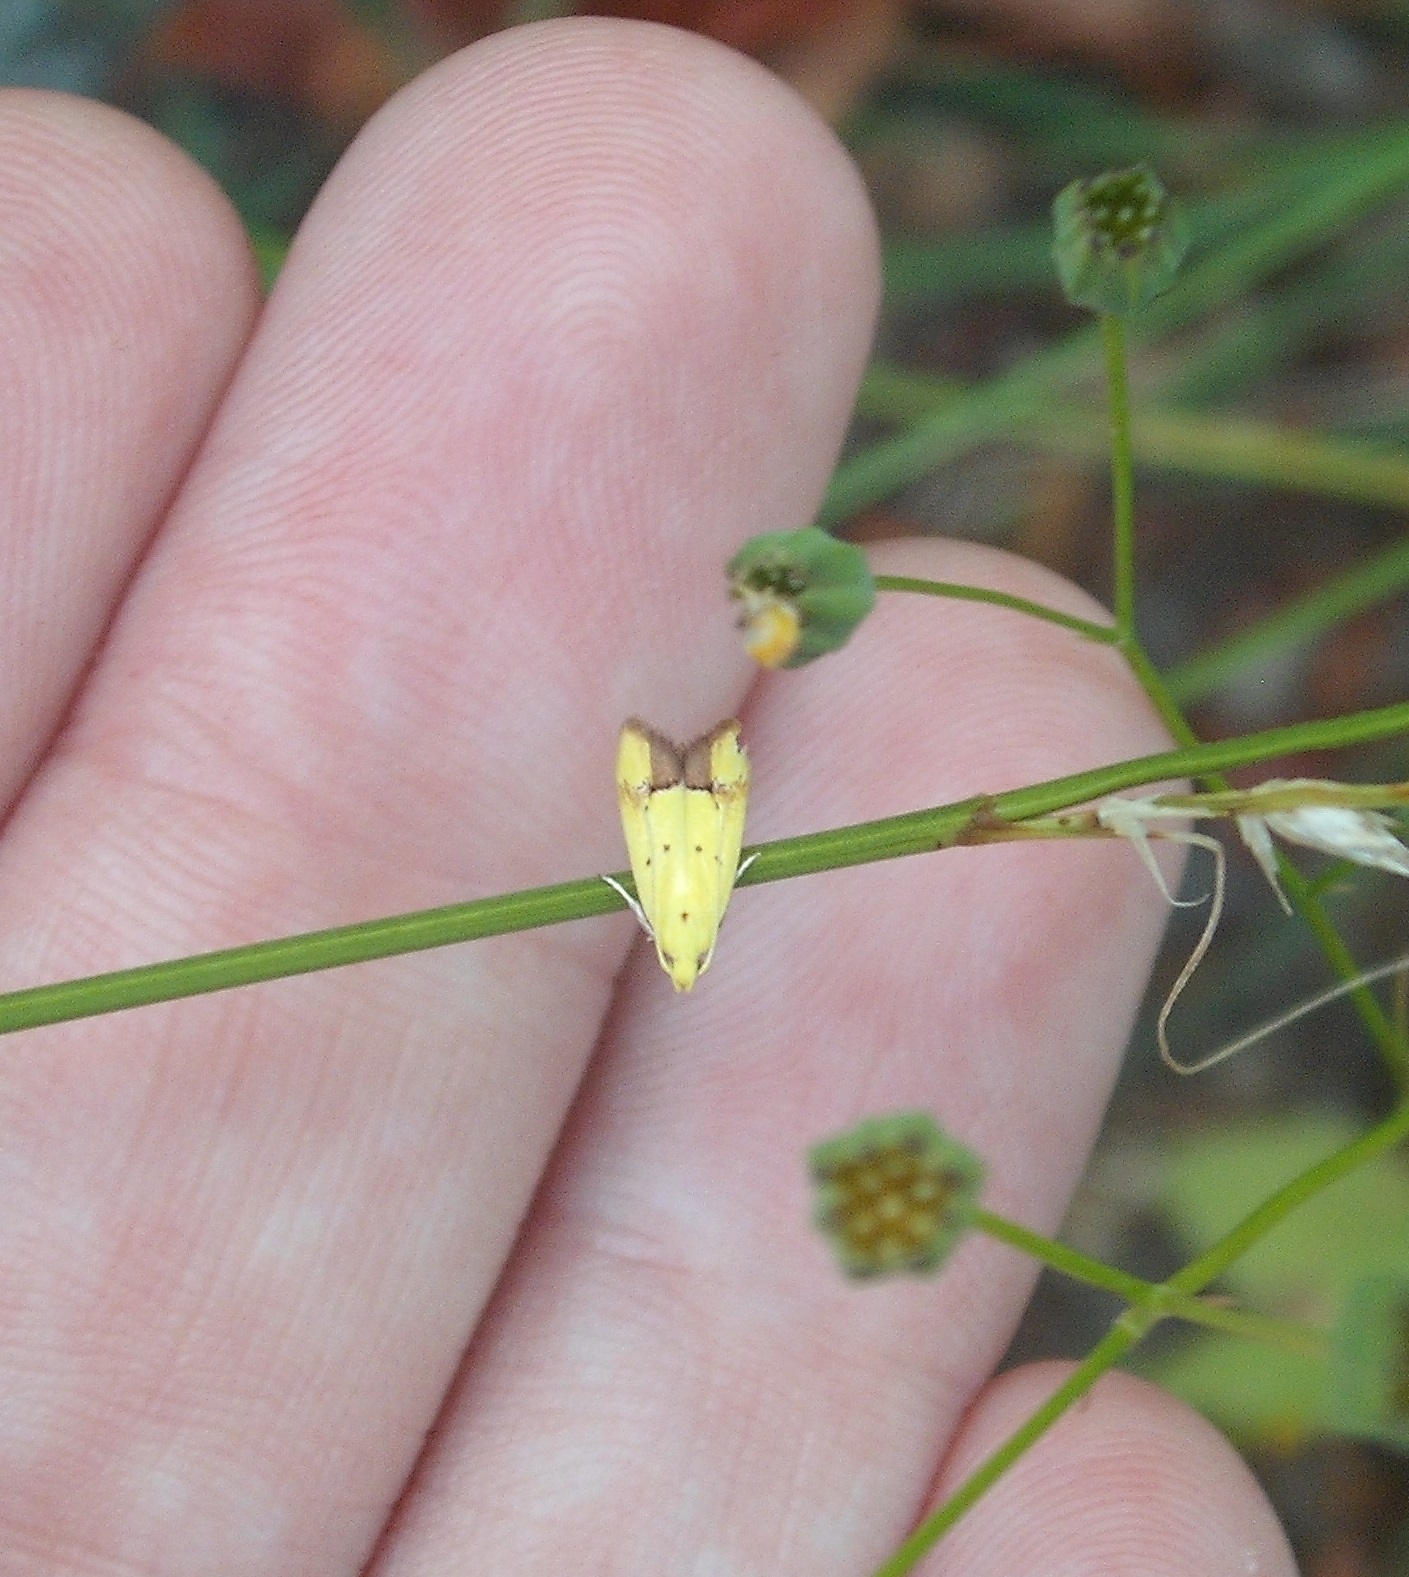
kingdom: Animalia
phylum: Arthropoda
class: Insecta
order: Lepidoptera
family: Oecophoridae
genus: Gymnobathra
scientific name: Gymnobathra flavidella
